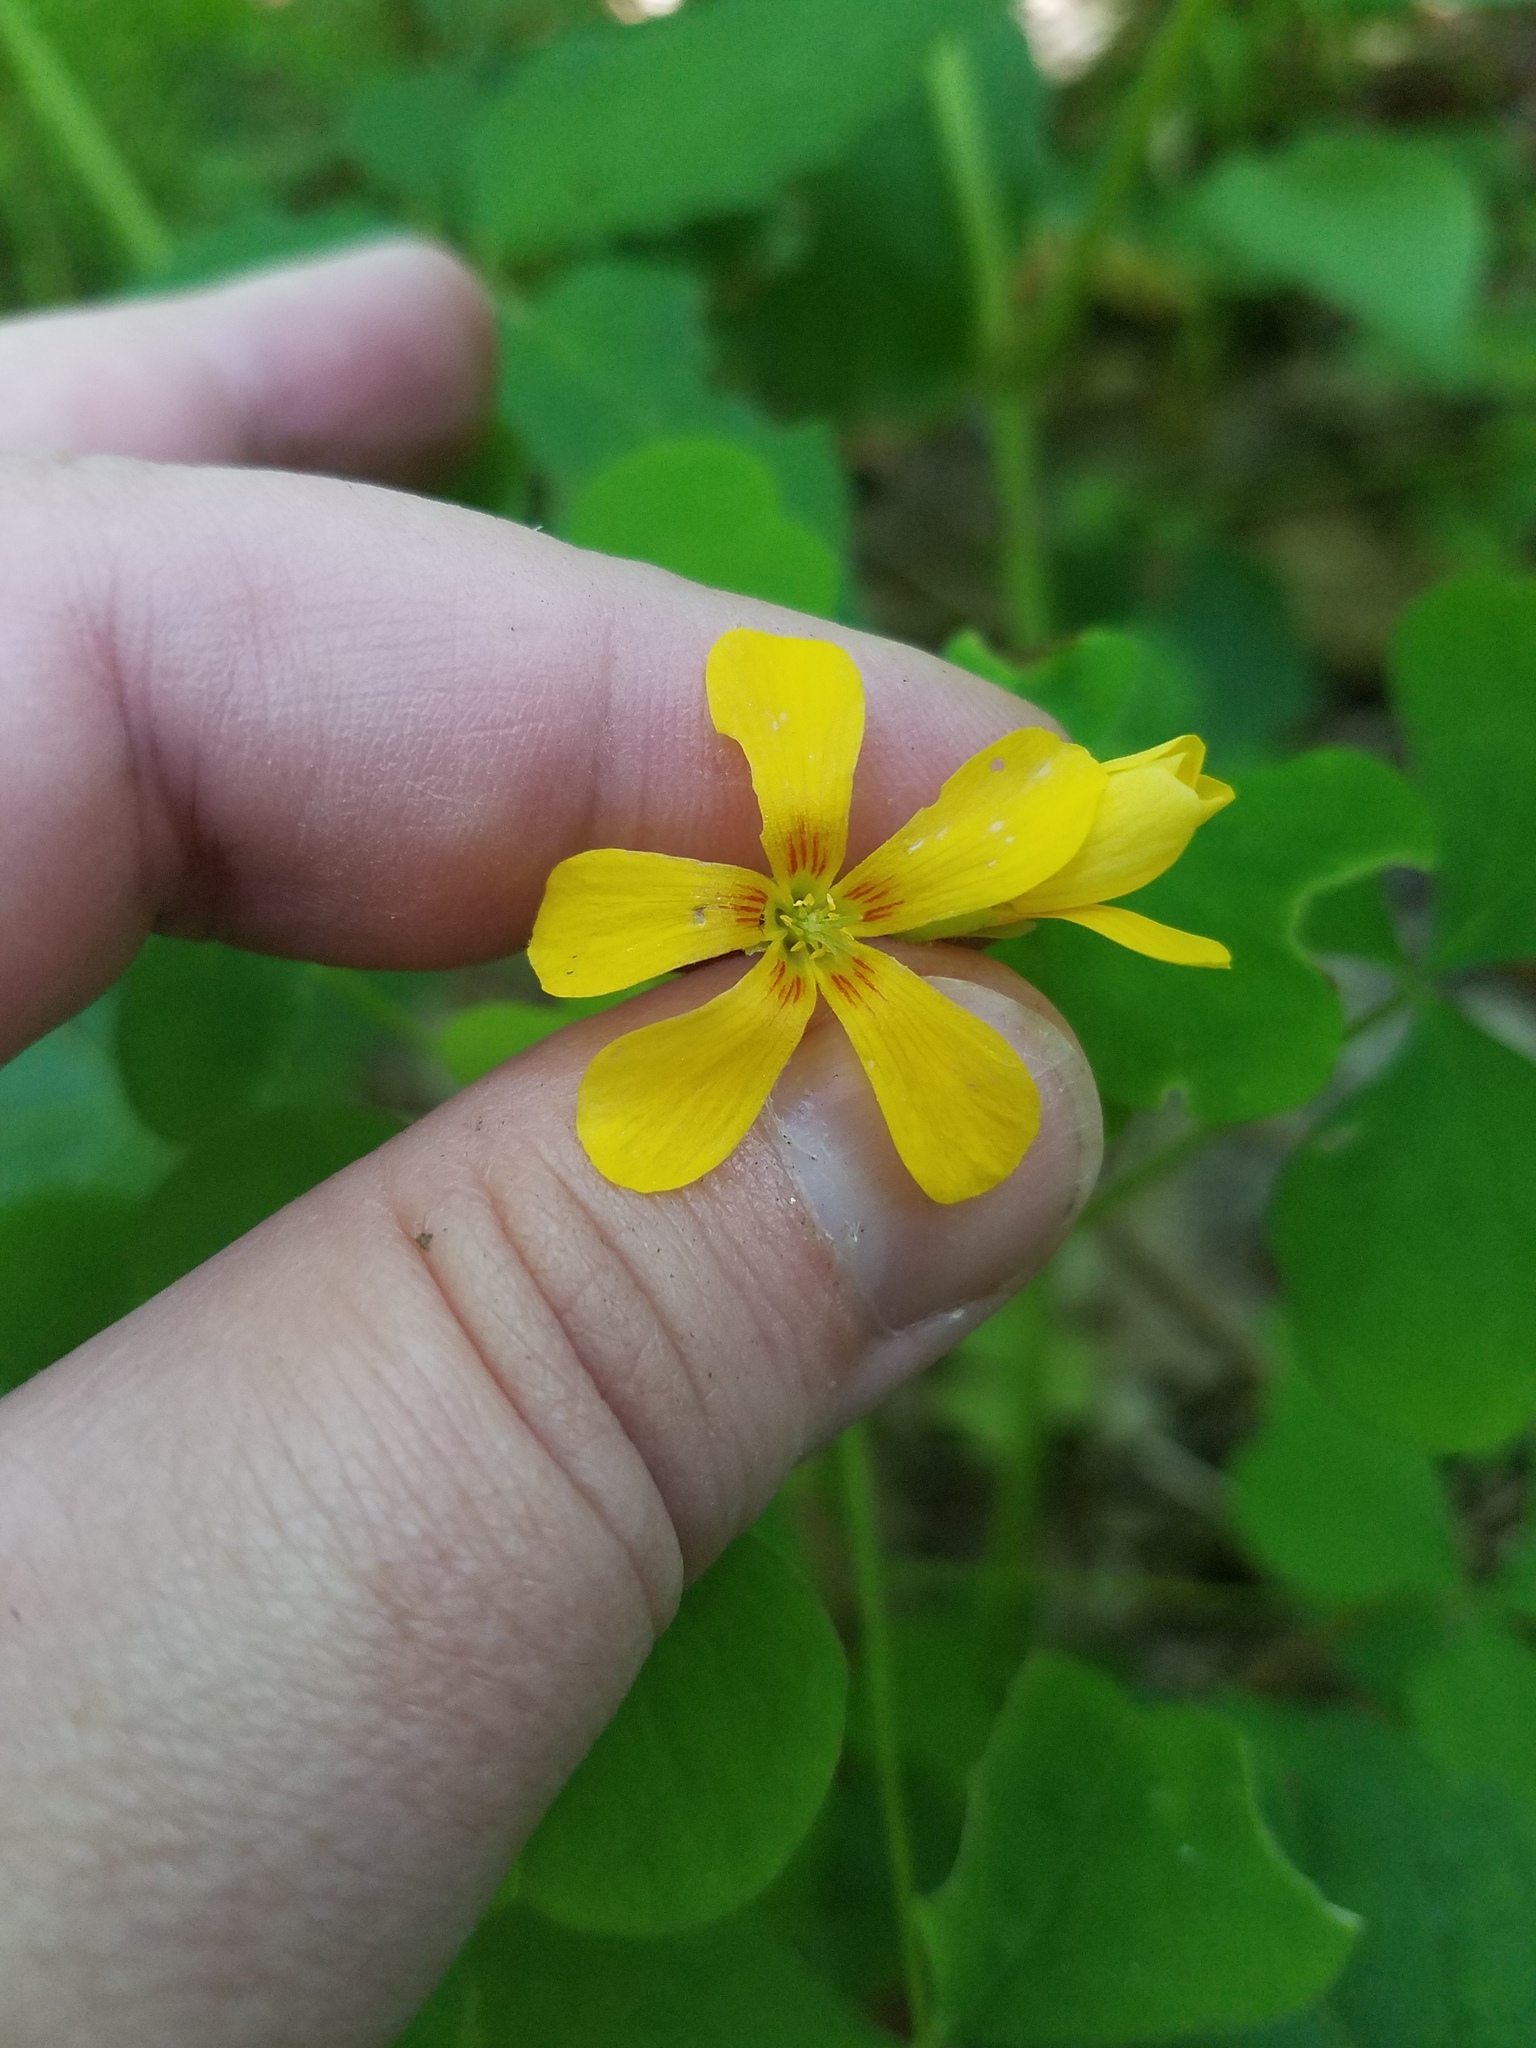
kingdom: Plantae
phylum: Tracheophyta
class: Magnoliopsida
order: Oxalidales
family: Oxalidaceae
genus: Oxalis
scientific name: Oxalis grandis
